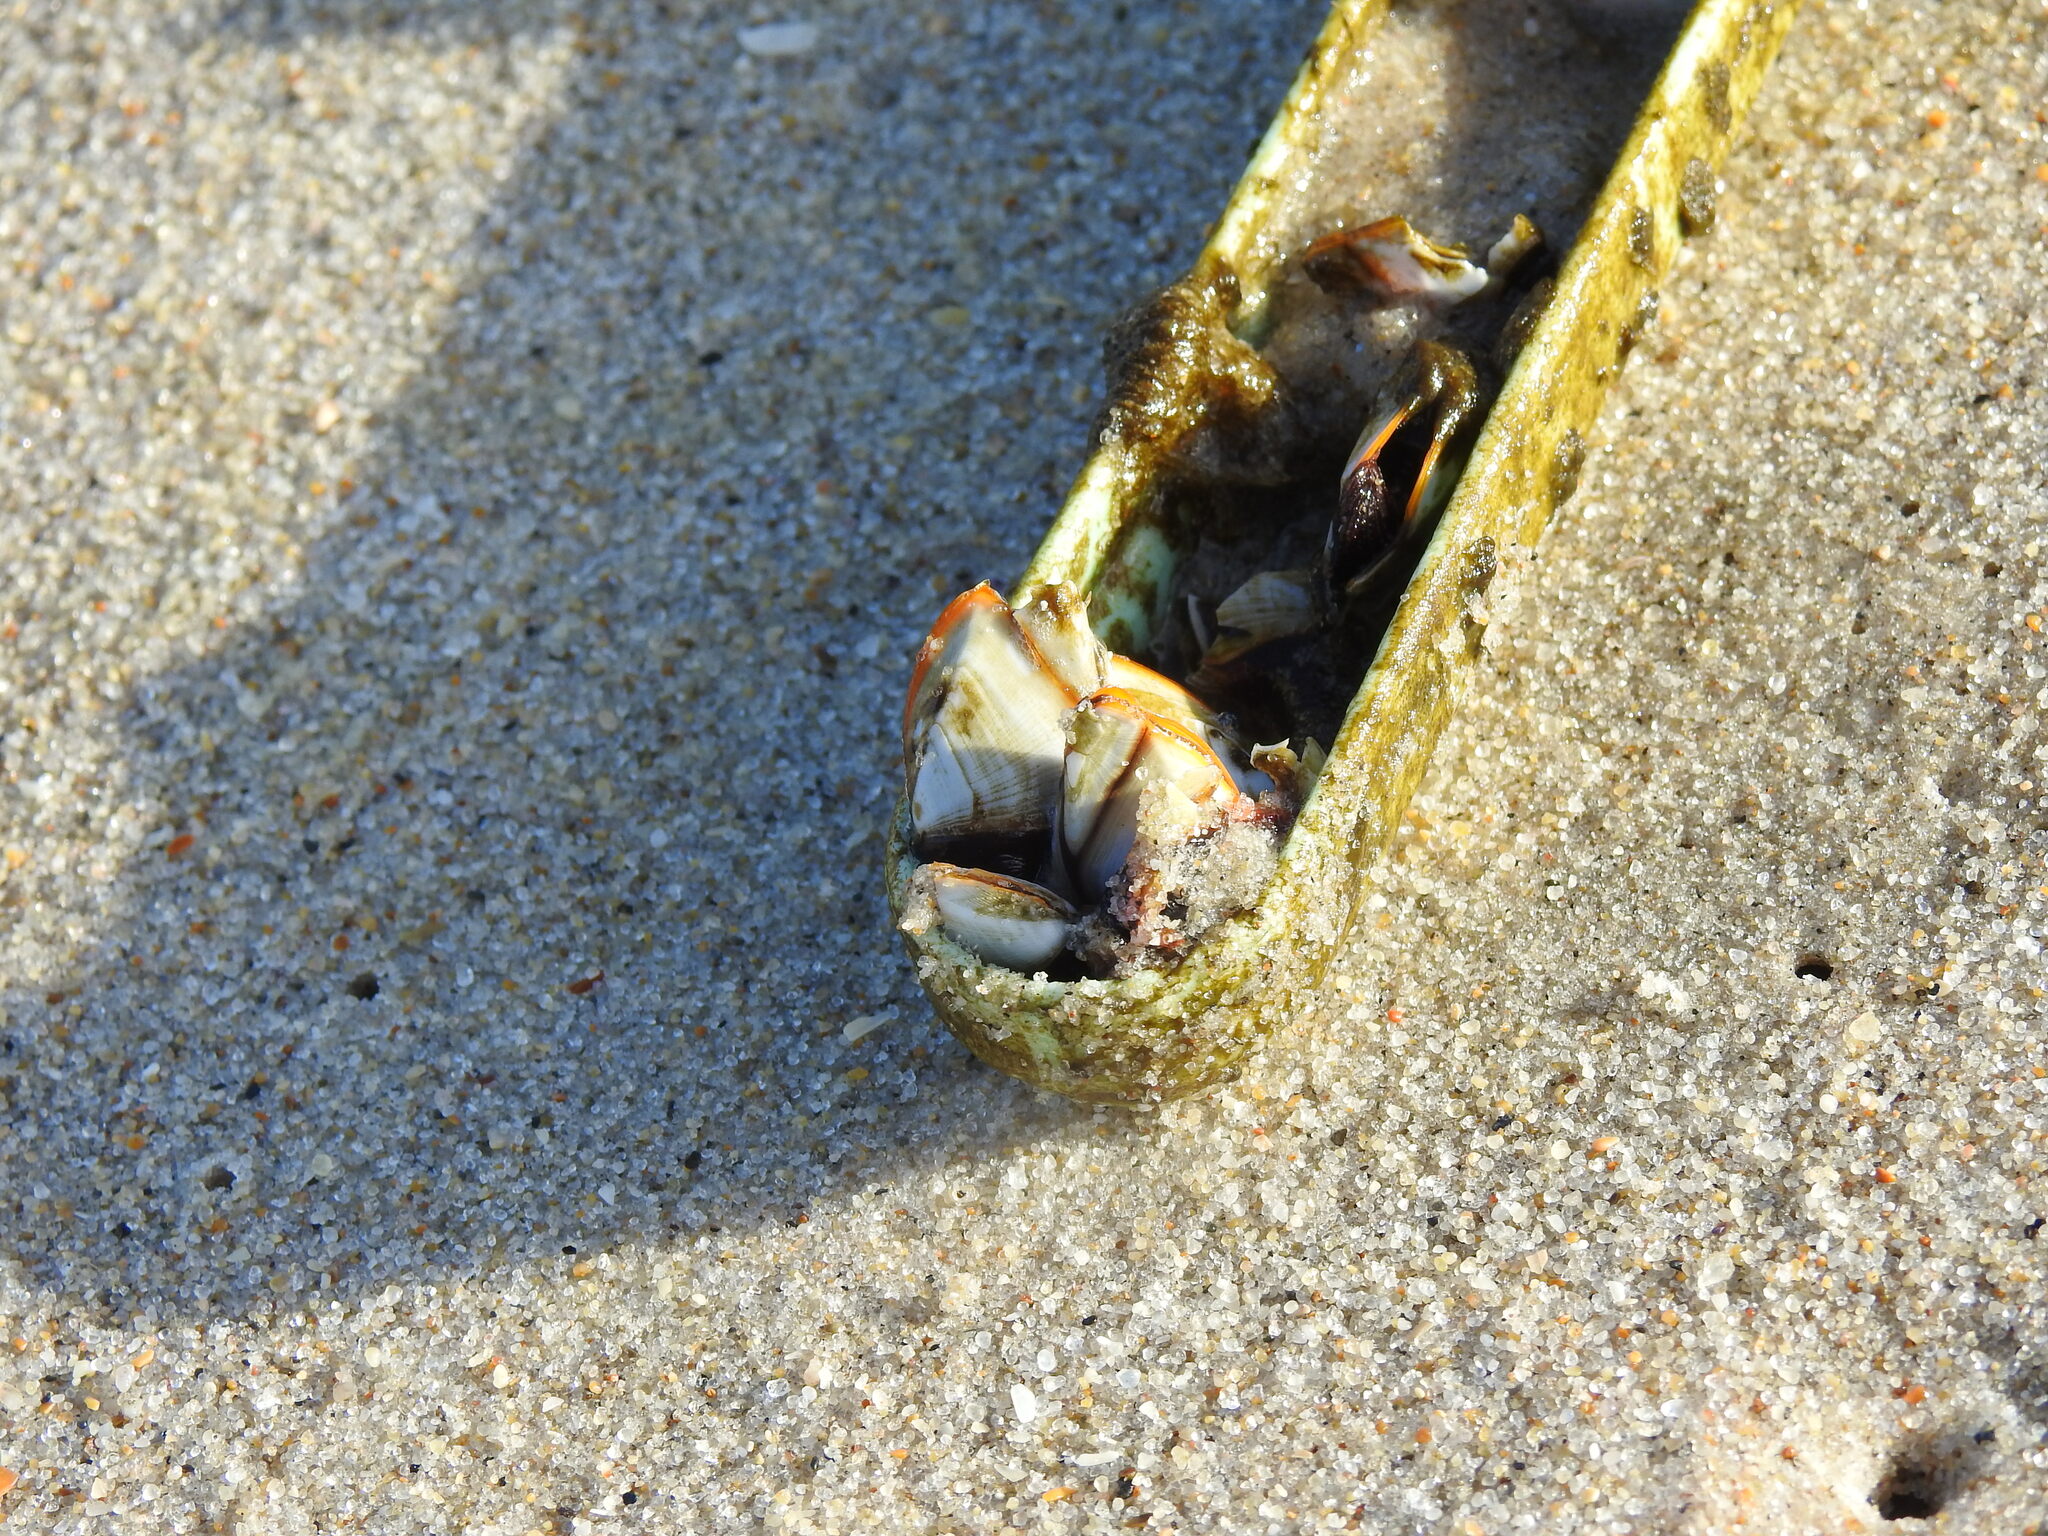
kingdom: Animalia
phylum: Arthropoda
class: Maxillopoda
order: Pedunculata
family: Lepadidae
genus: Lepas
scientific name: Lepas anserifera
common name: Goose barnacle
